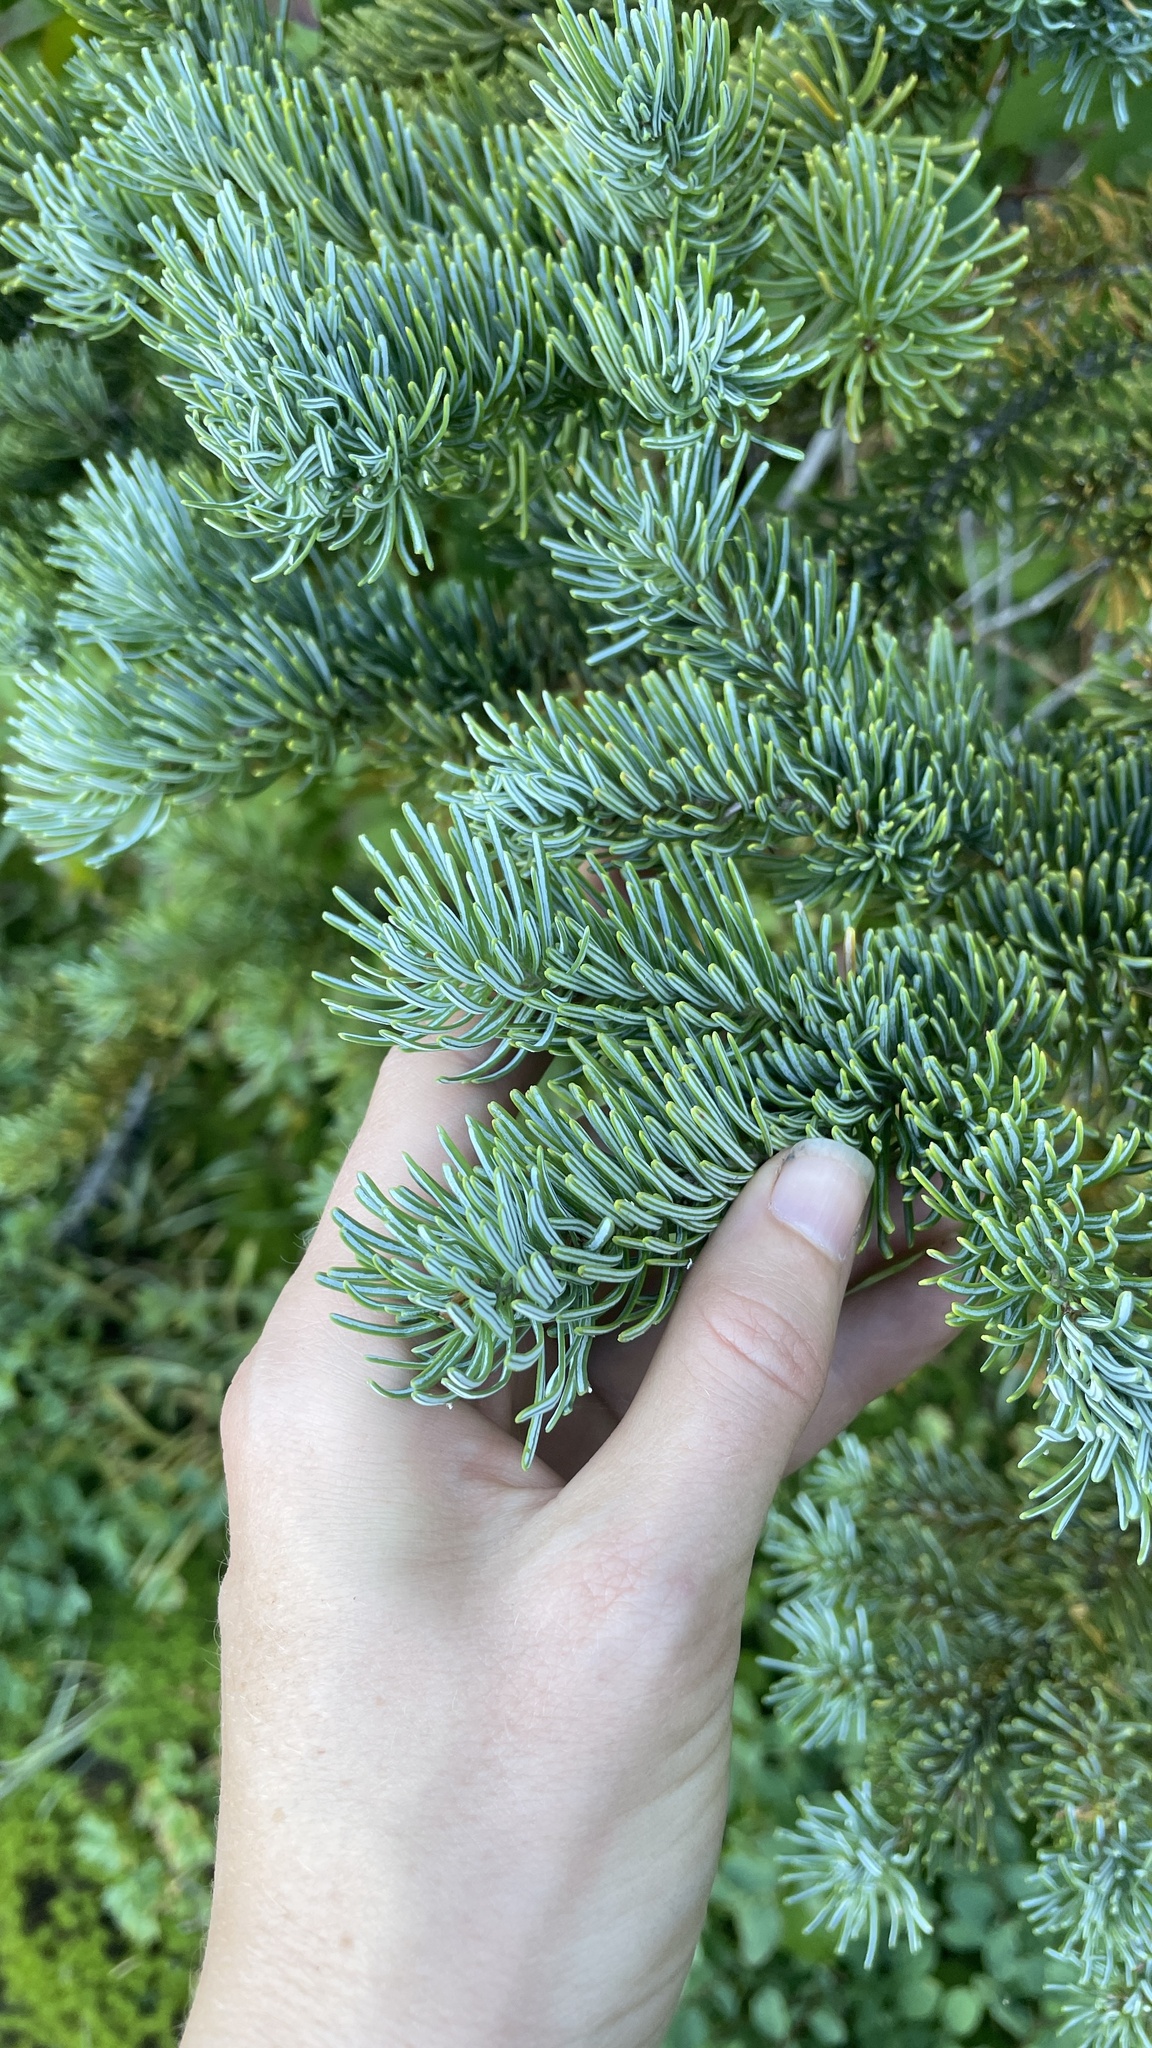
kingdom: Plantae
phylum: Tracheophyta
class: Pinopsida
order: Pinales
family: Pinaceae
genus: Abies
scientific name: Abies lasiocarpa
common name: Subalpine fir
